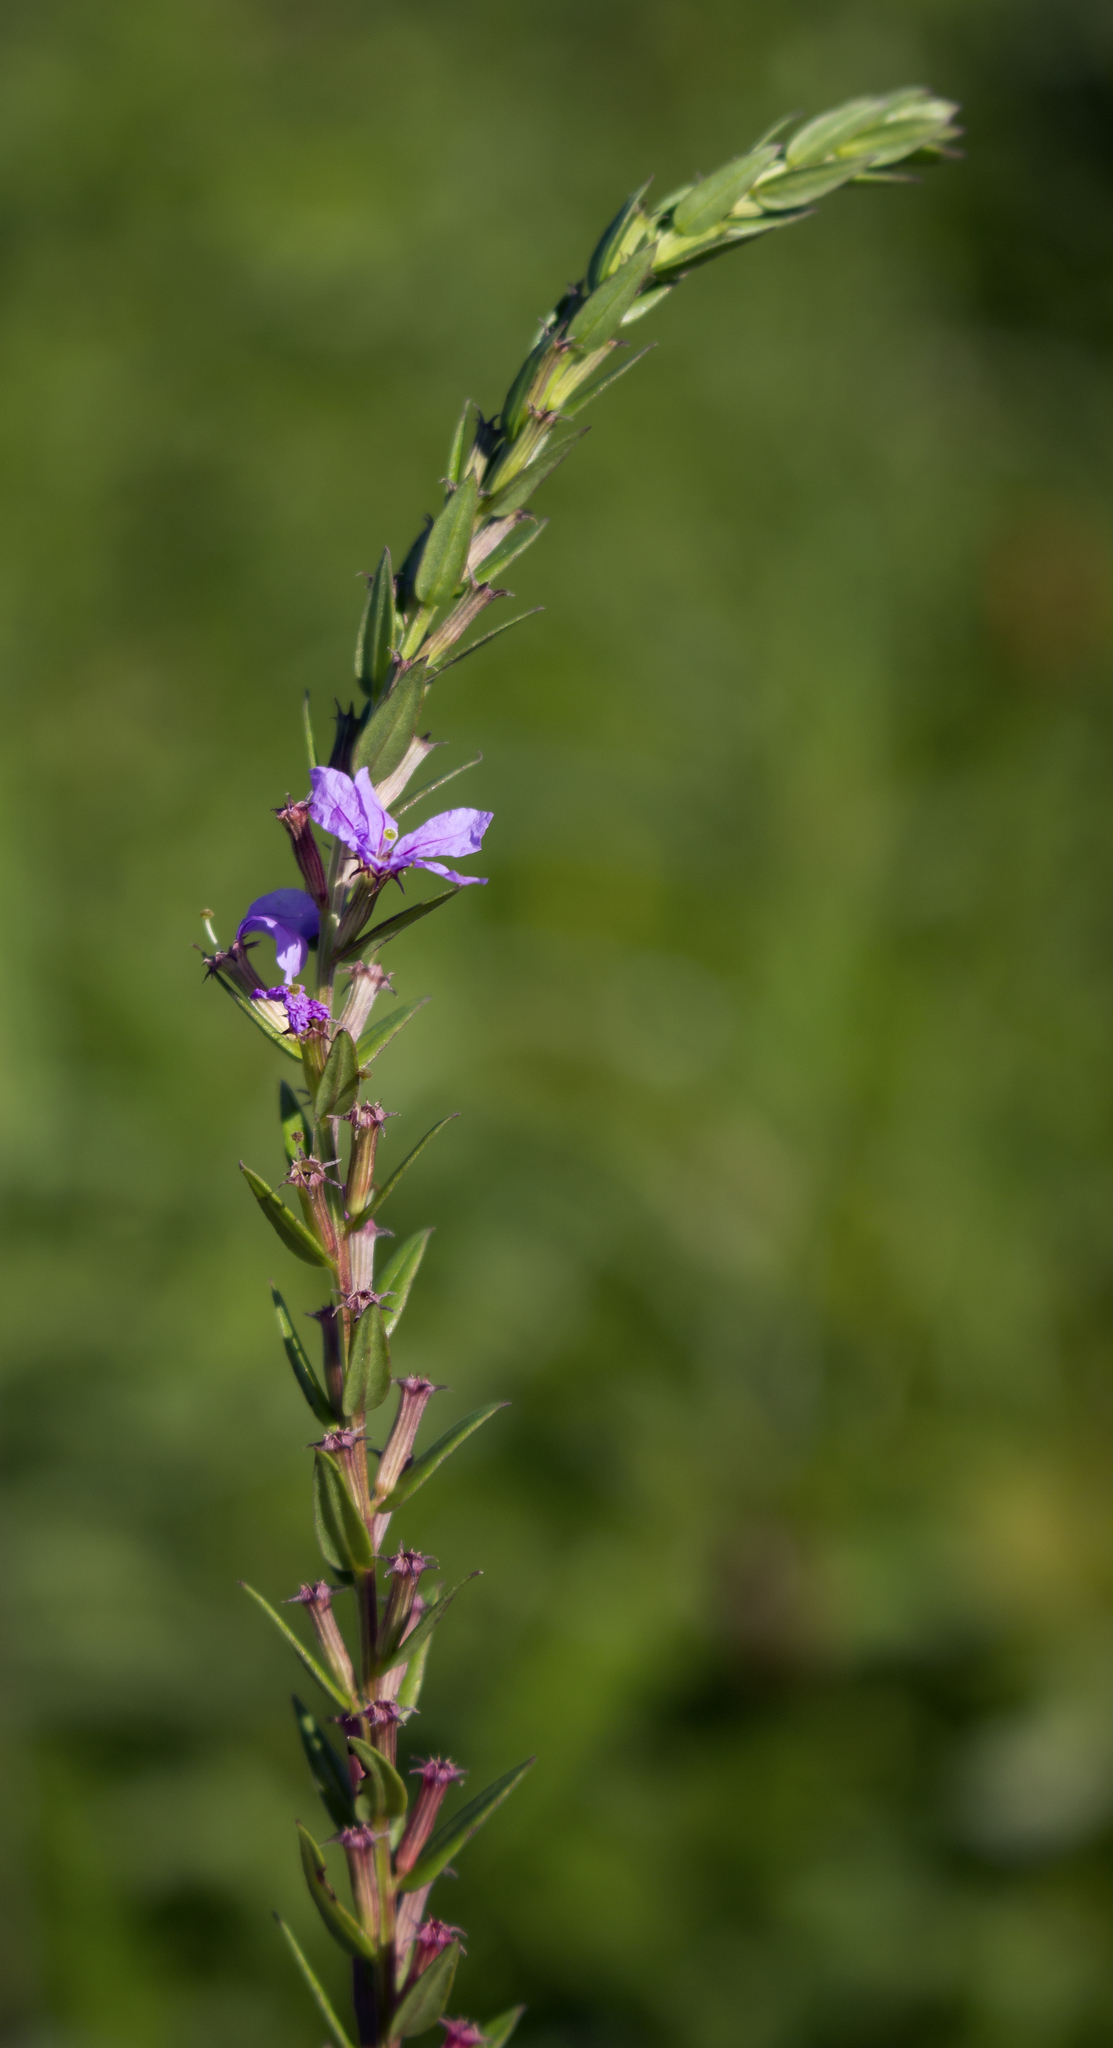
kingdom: Plantae
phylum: Tracheophyta
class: Magnoliopsida
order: Myrtales
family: Lythraceae
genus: Lythrum
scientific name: Lythrum alatum
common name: Winged loosestrife
